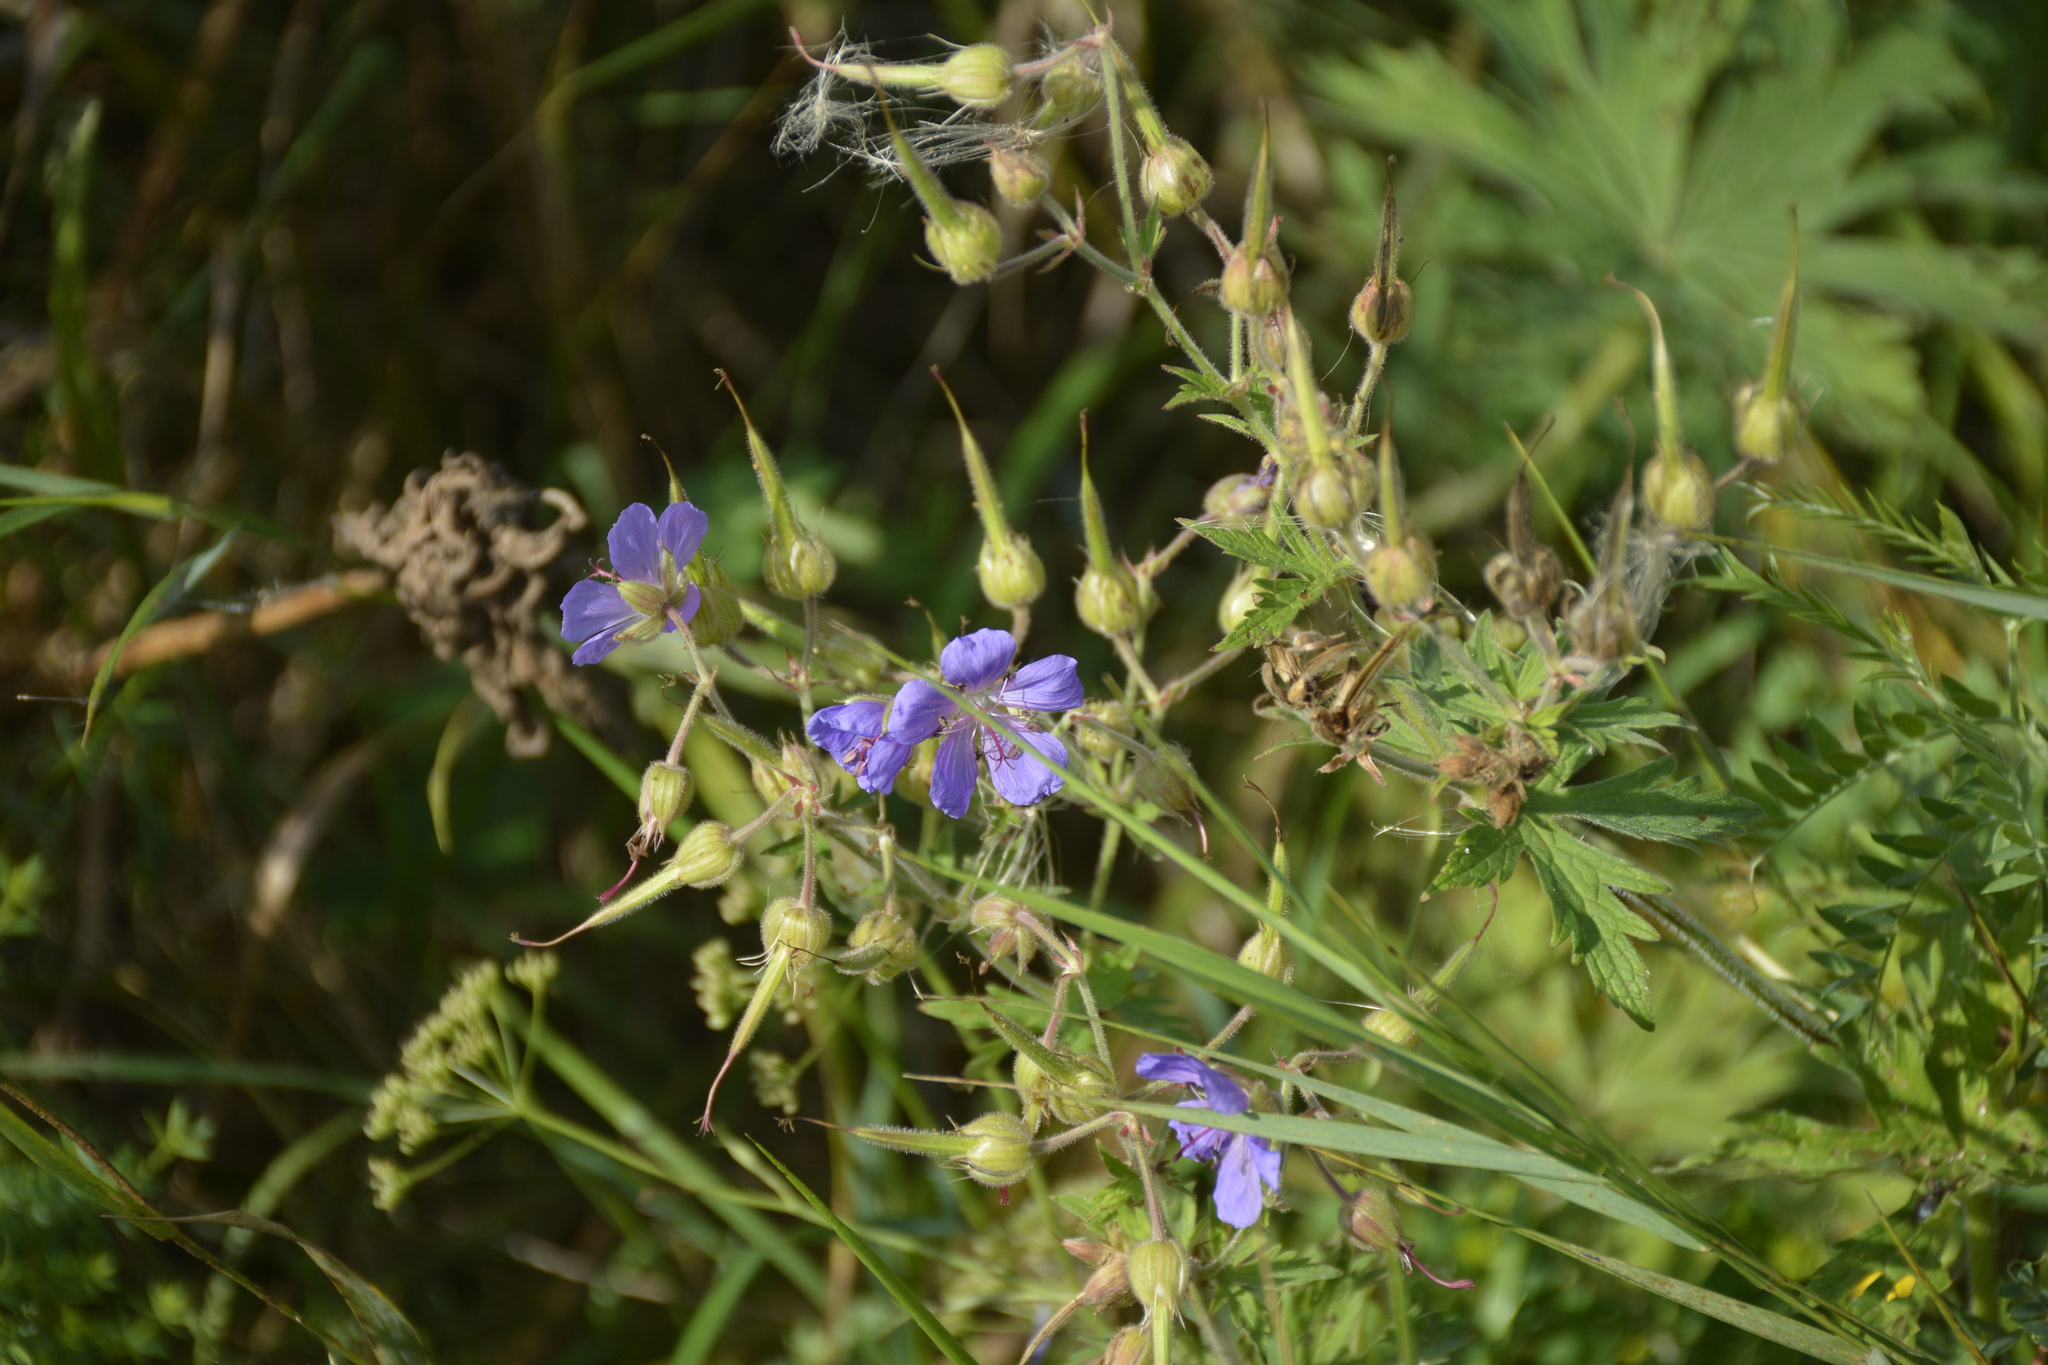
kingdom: Plantae
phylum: Tracheophyta
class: Magnoliopsida
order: Geraniales
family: Geraniaceae
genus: Geranium
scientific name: Geranium pratense
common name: Meadow crane's-bill
